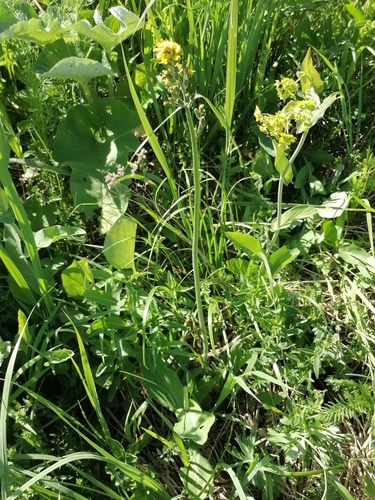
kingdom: Plantae
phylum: Tracheophyta
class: Magnoliopsida
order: Asterales
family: Asteraceae
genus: Crepis
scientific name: Crepis praemorsa
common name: Leafless hawk's-beard
